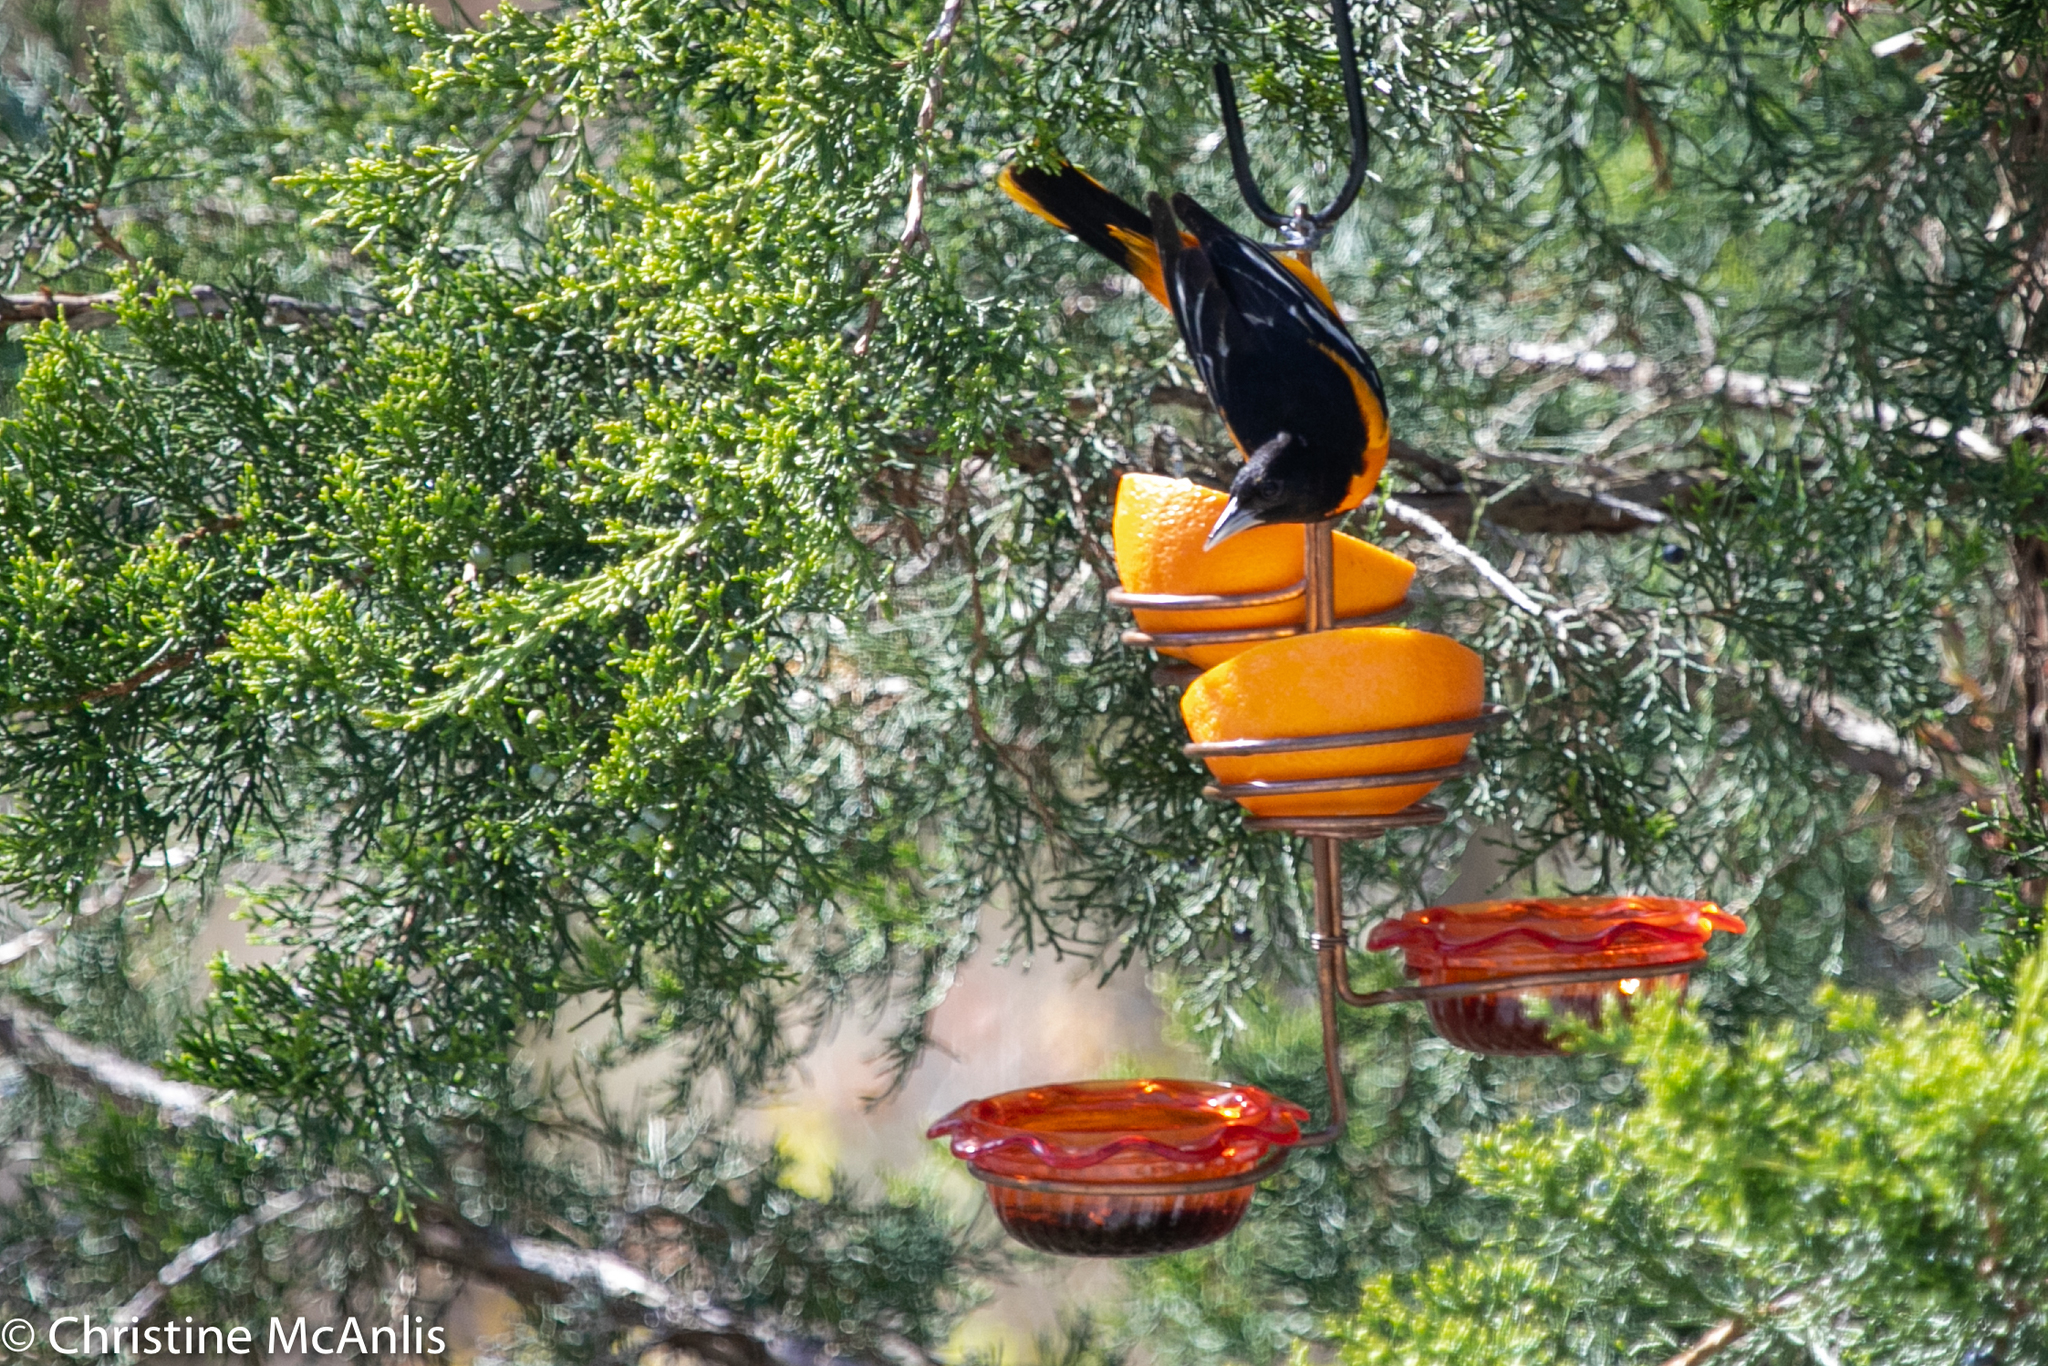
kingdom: Animalia
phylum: Chordata
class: Aves
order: Passeriformes
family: Icteridae
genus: Icterus
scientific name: Icterus galbula
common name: Baltimore oriole
